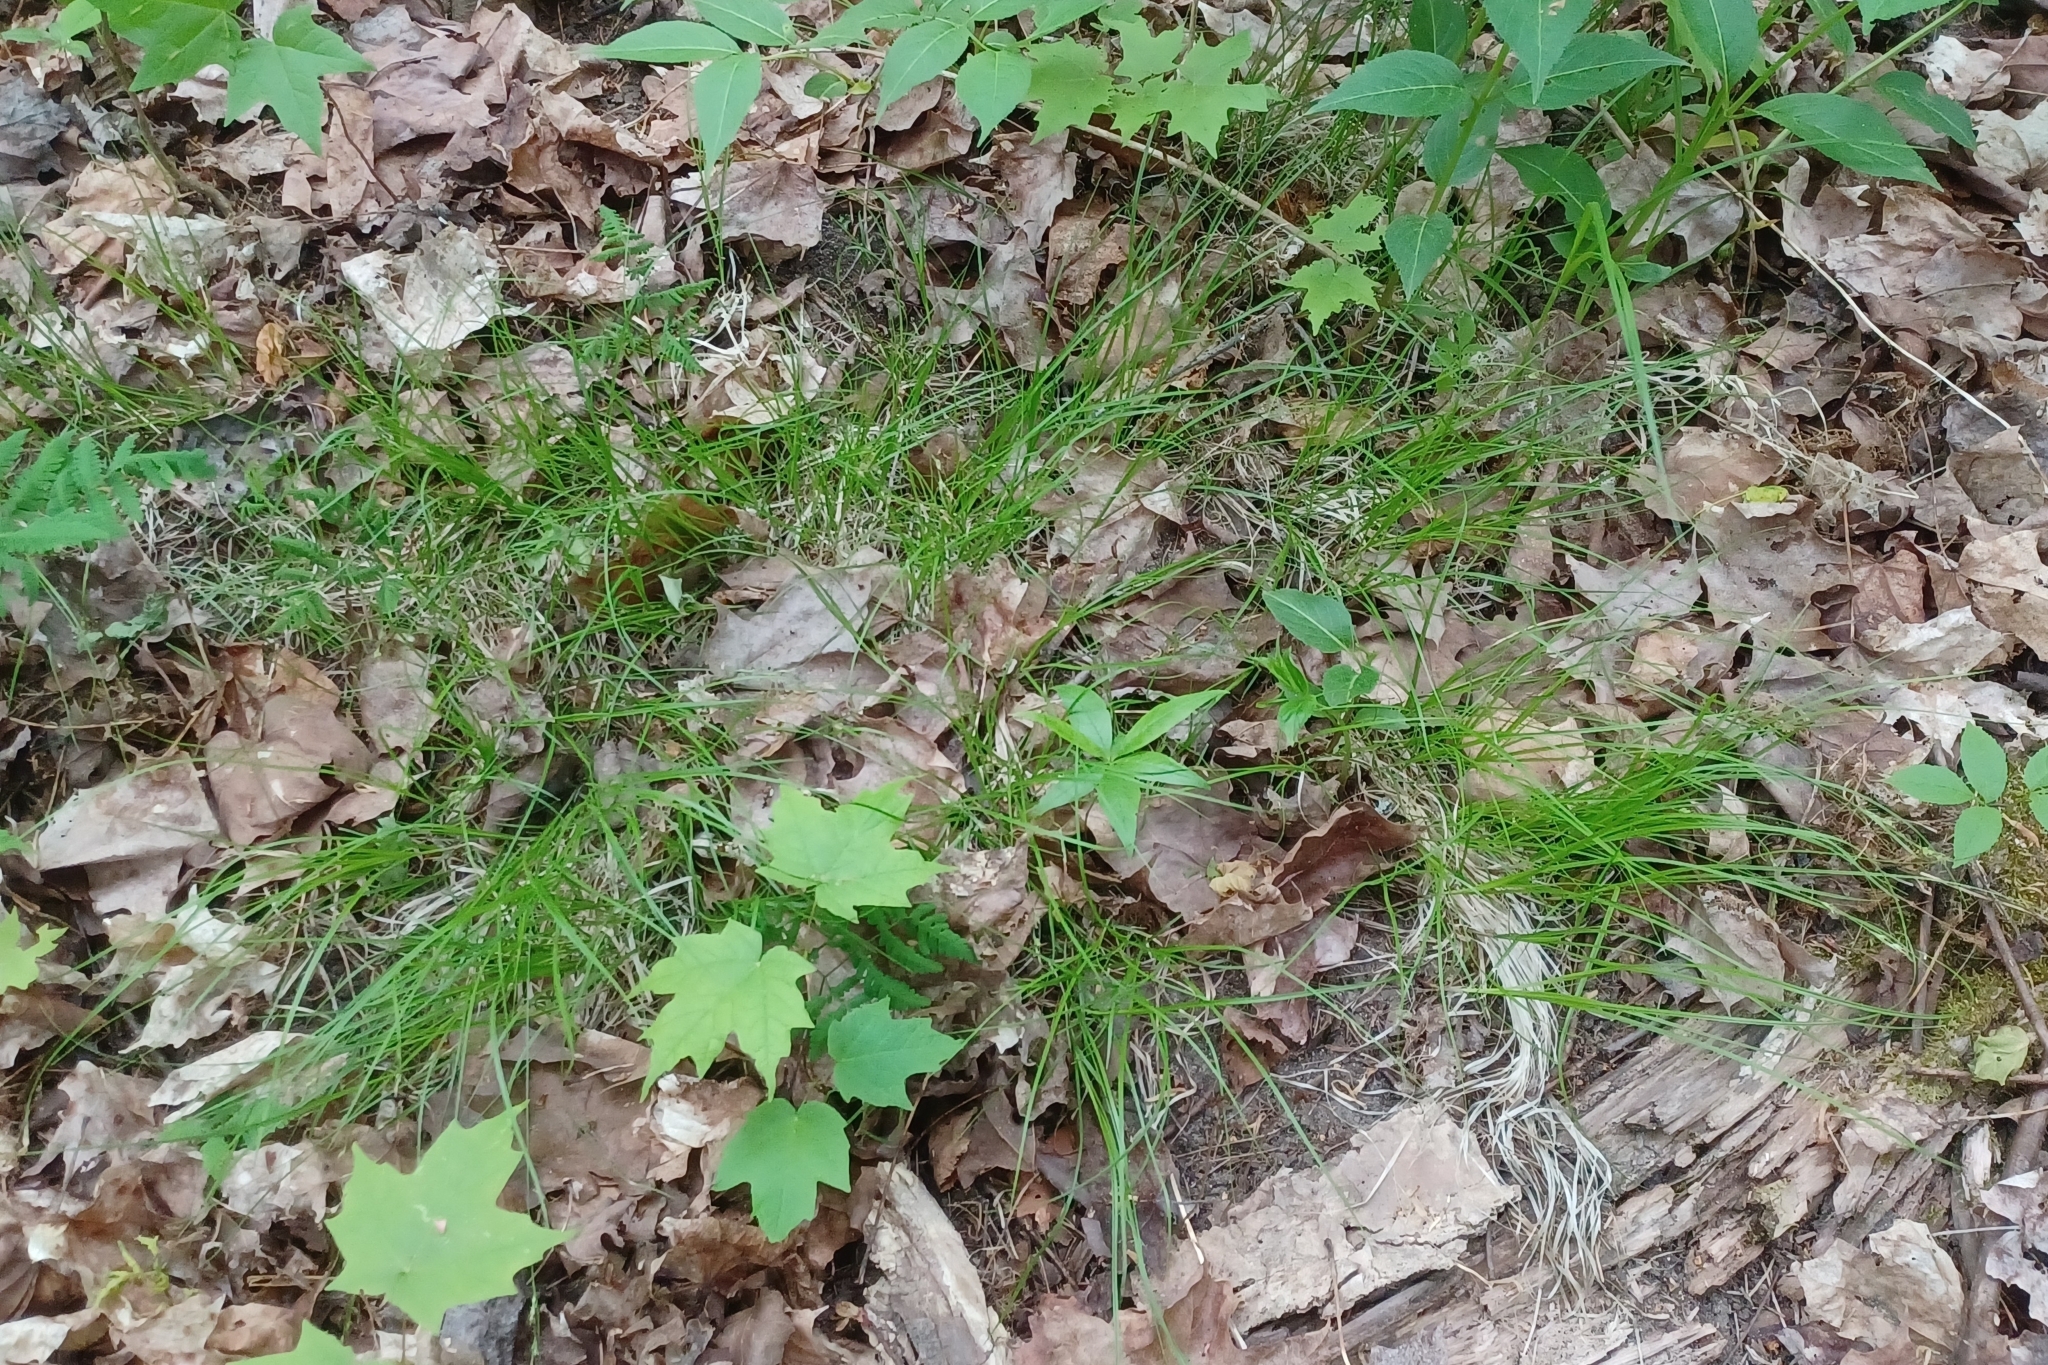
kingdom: Plantae
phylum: Tracheophyta
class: Liliopsida
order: Poales
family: Cyperaceae
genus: Carex
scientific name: Carex novae-angliae
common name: New england sedge
